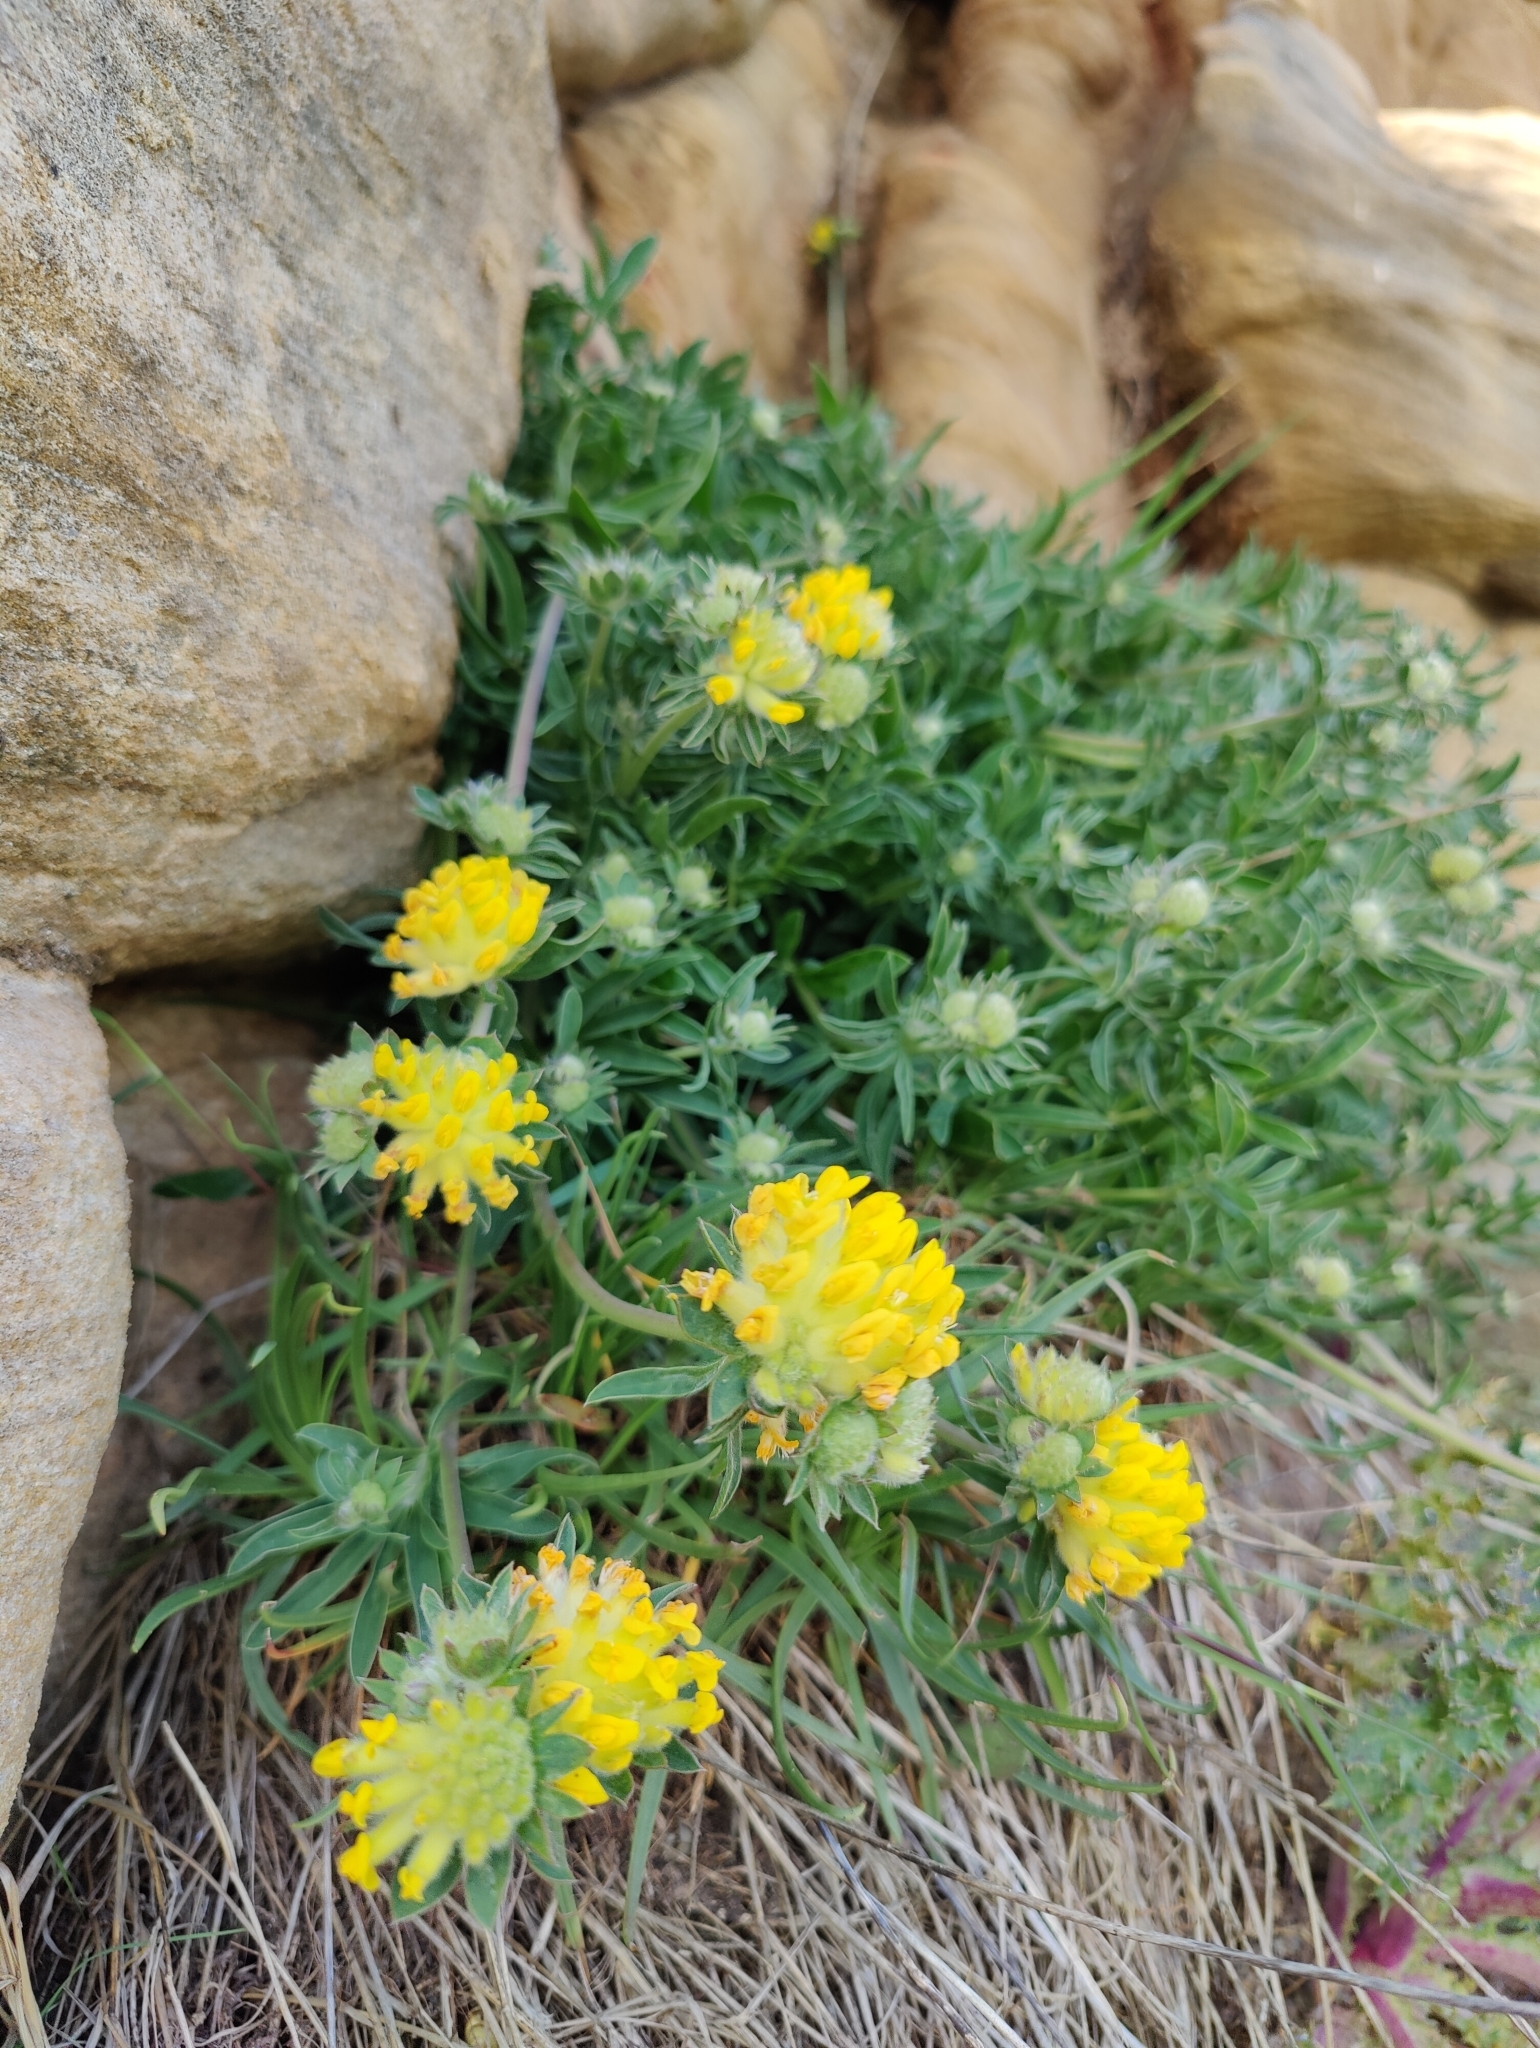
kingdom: Plantae
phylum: Tracheophyta
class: Magnoliopsida
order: Fabales
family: Fabaceae
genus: Anthyllis
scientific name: Anthyllis vulneraria
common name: Kidney vetch
